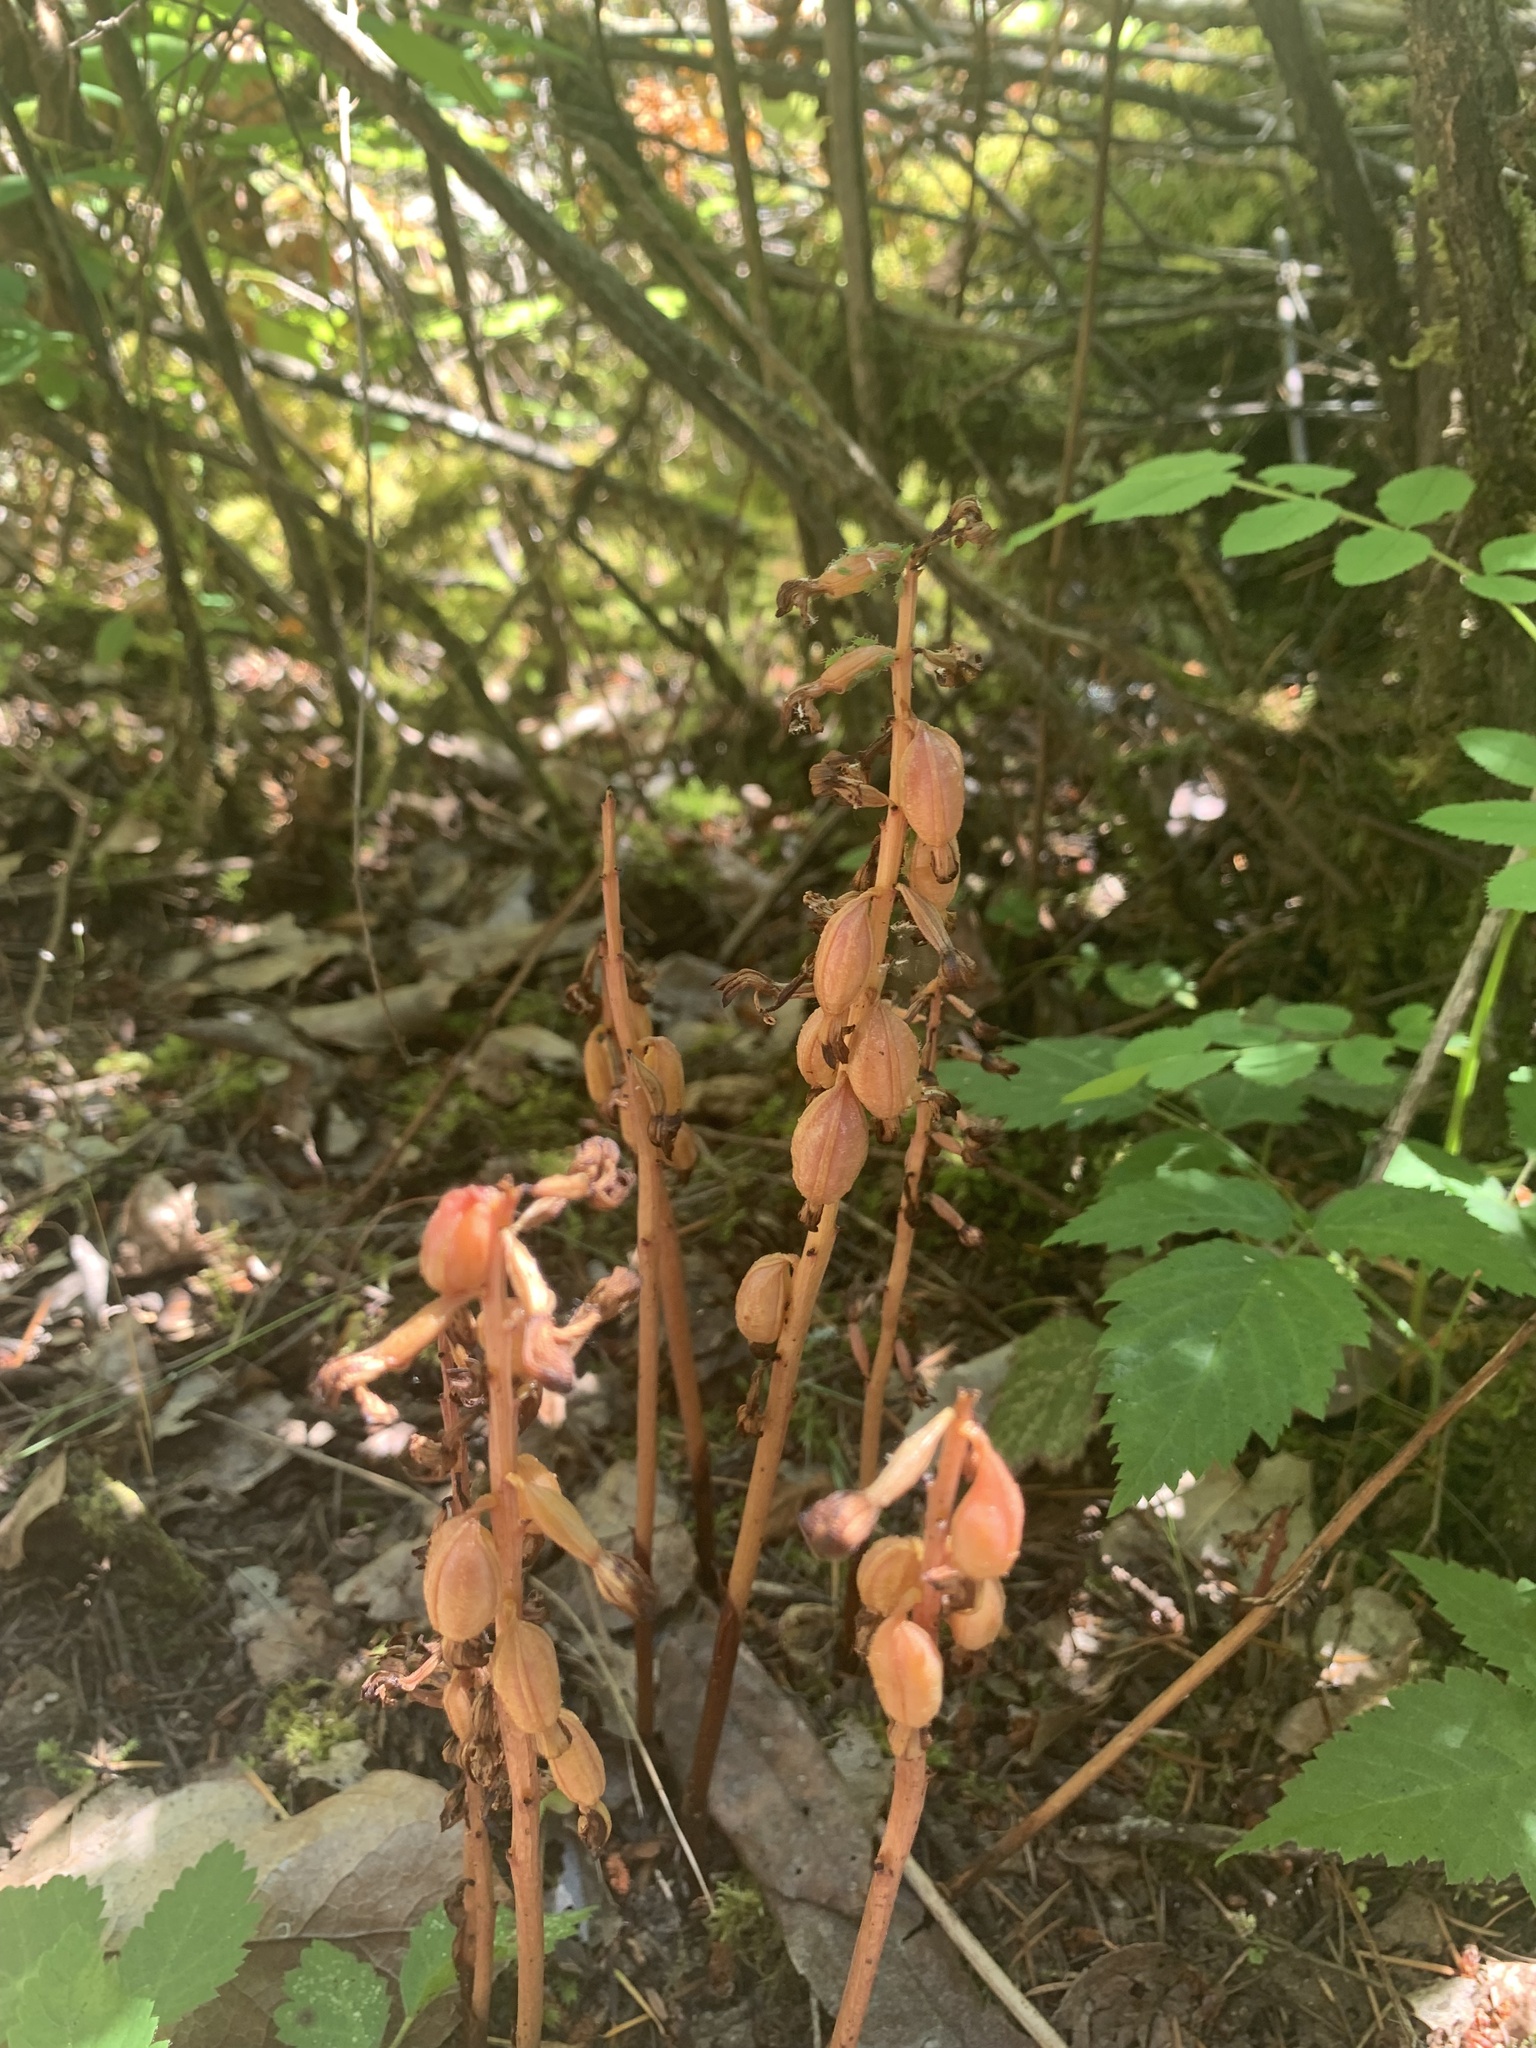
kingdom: Plantae
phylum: Tracheophyta
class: Liliopsida
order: Asparagales
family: Orchidaceae
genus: Corallorhiza
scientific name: Corallorhiza maculata
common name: Spotted coralroot
